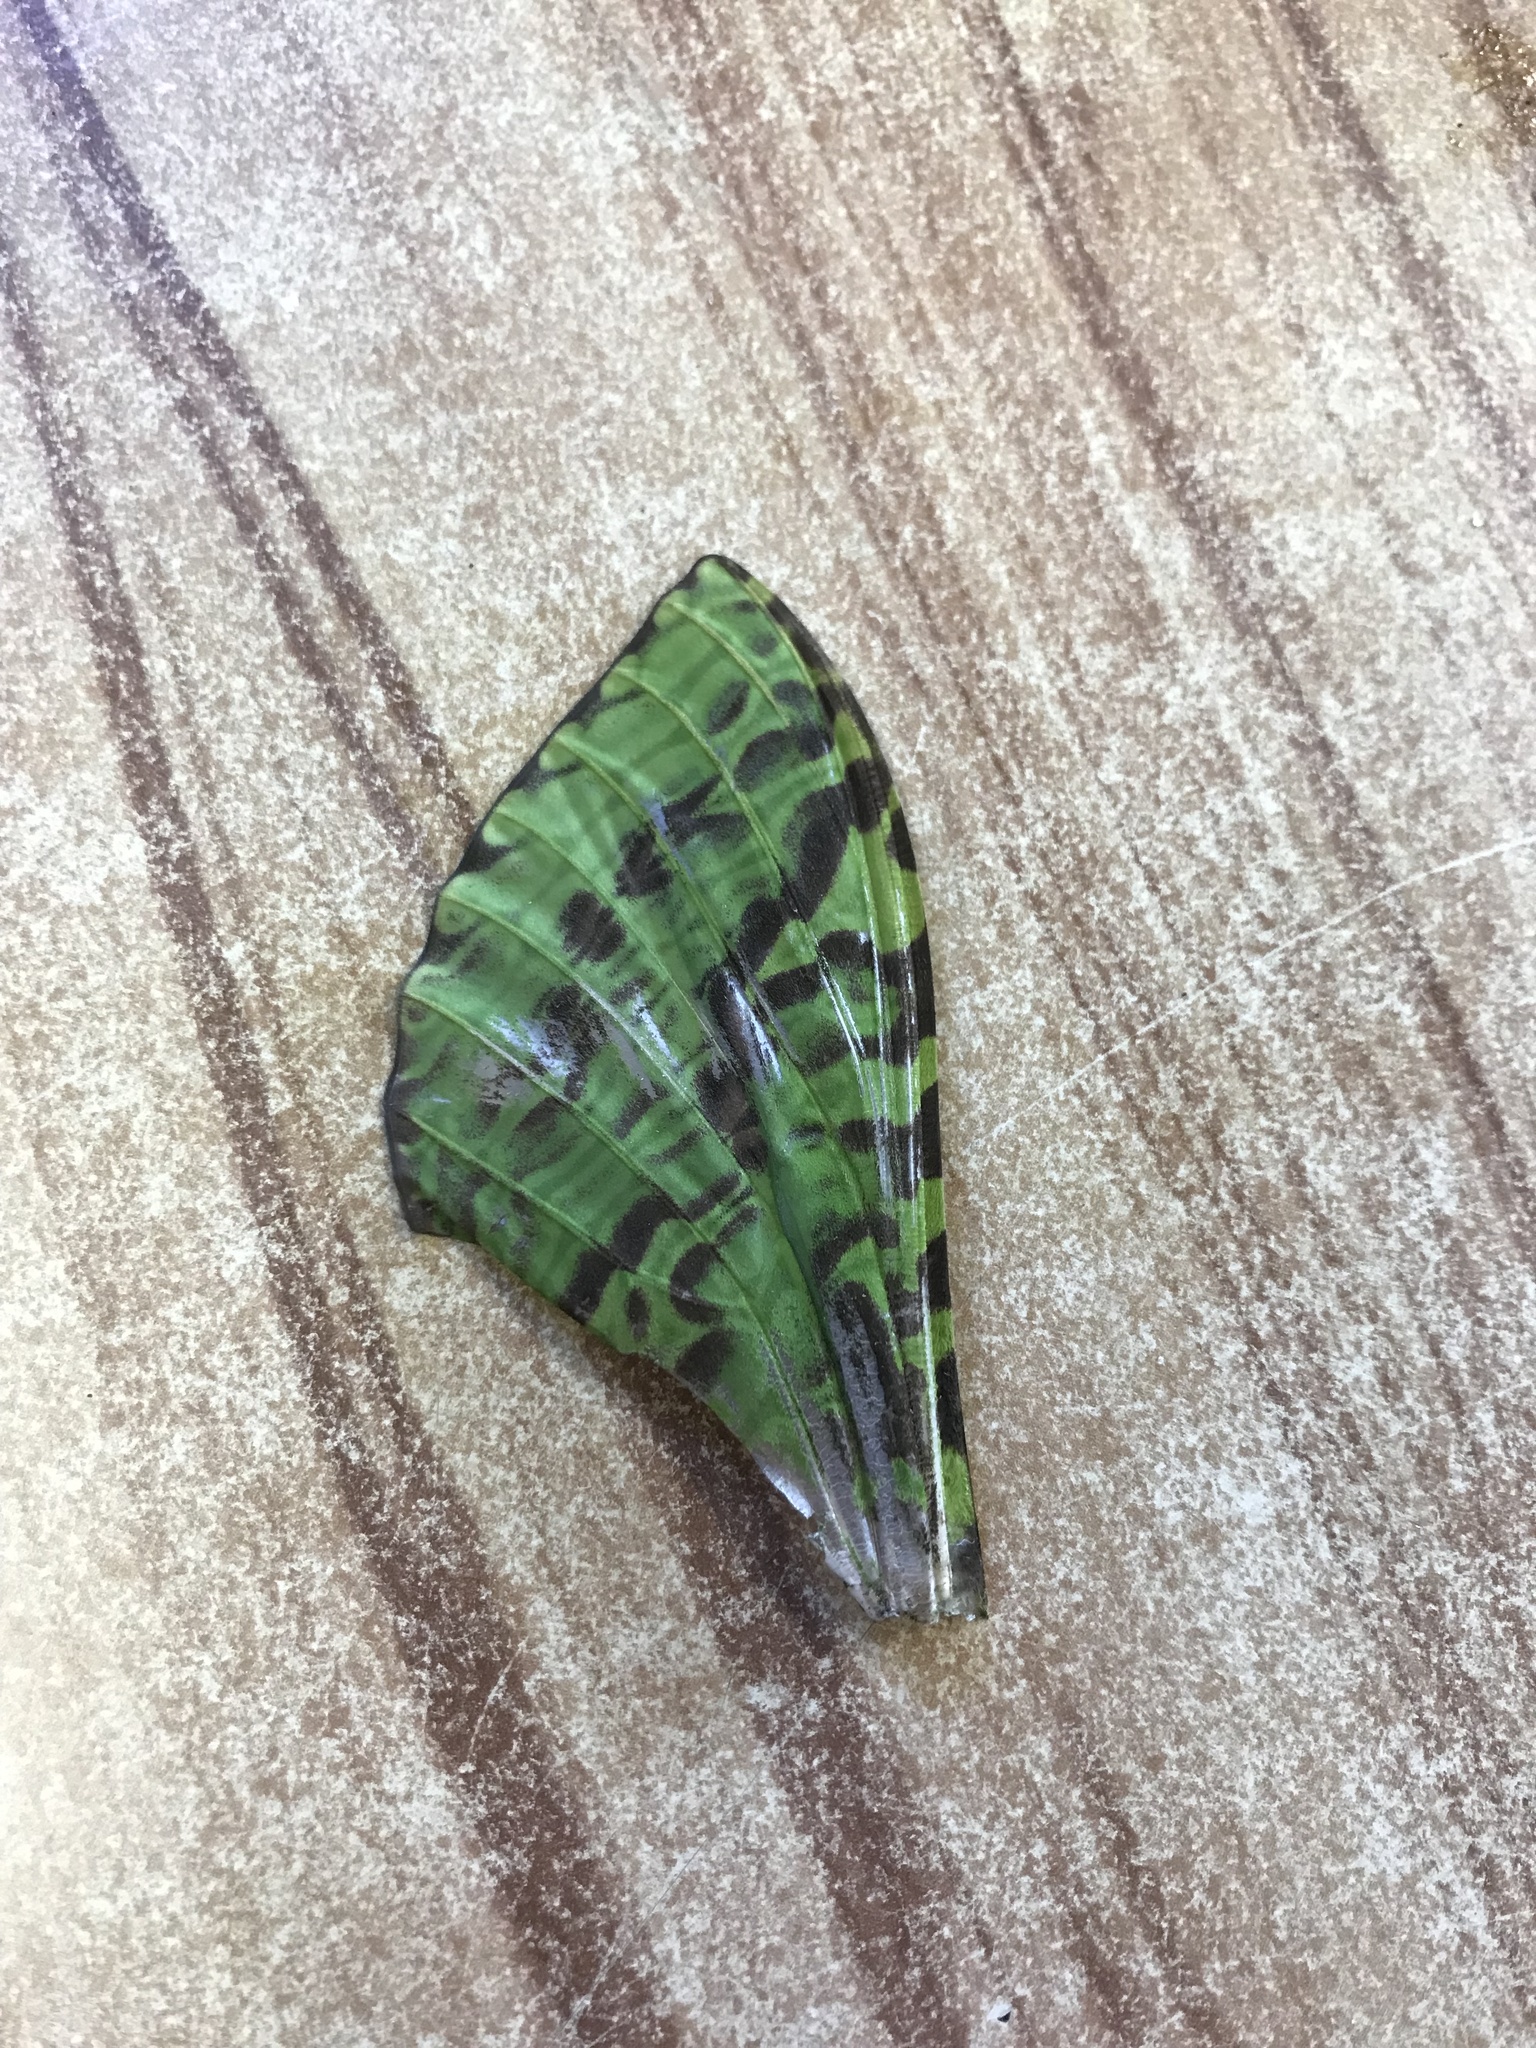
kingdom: Animalia
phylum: Arthropoda
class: Insecta
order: Lepidoptera
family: Hepialidae
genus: Aenetus
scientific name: Aenetus virescens
